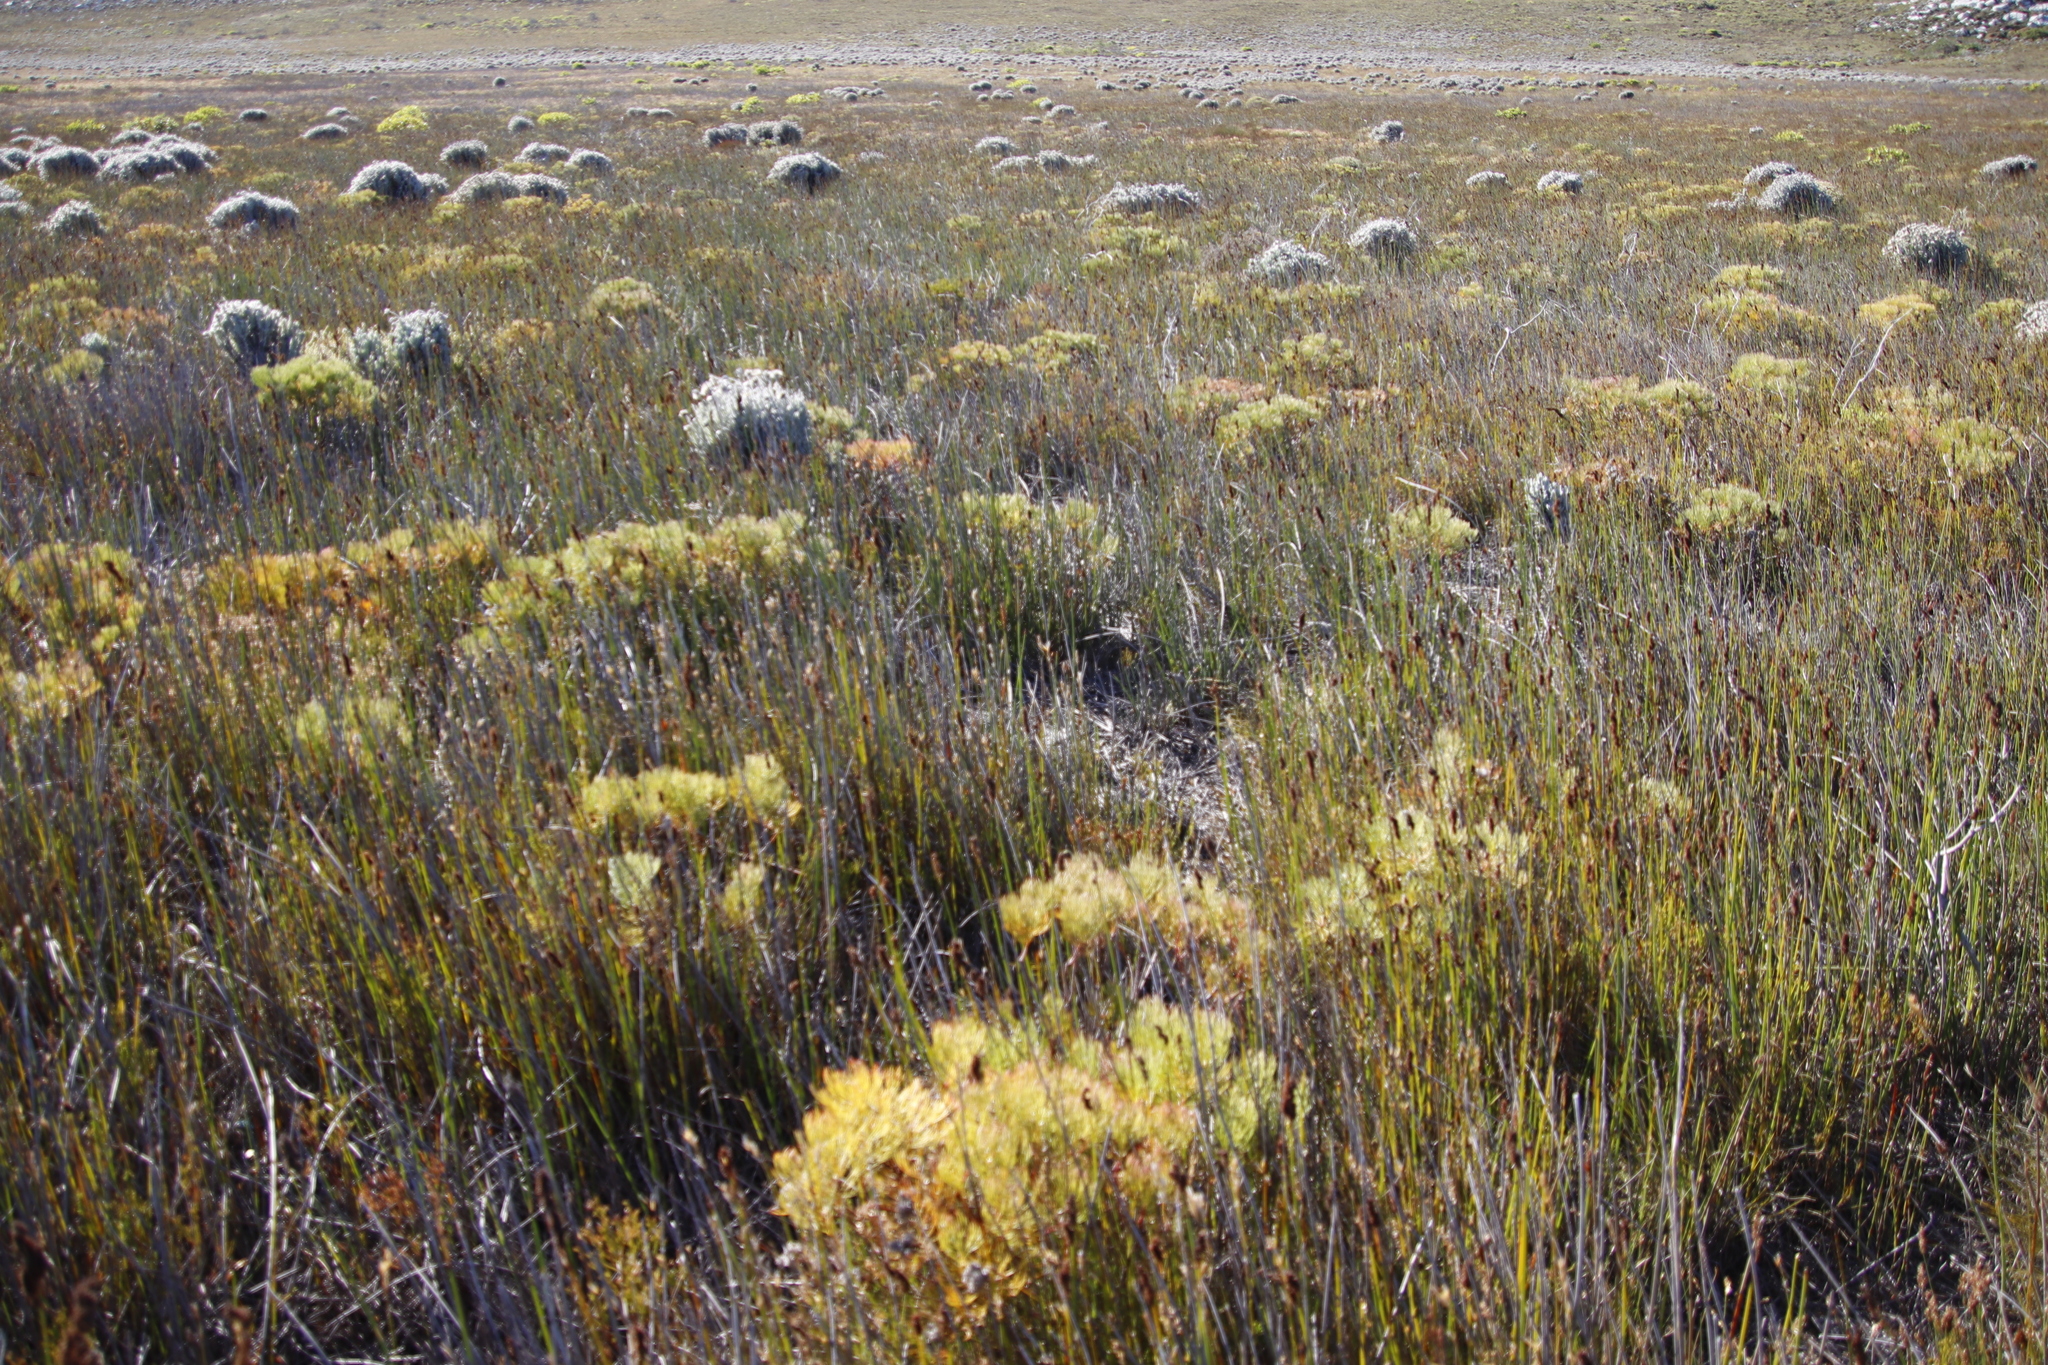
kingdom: Plantae
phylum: Tracheophyta
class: Magnoliopsida
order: Proteales
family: Proteaceae
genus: Serruria
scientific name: Serruria glomerata
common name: Cluster spiderhead
